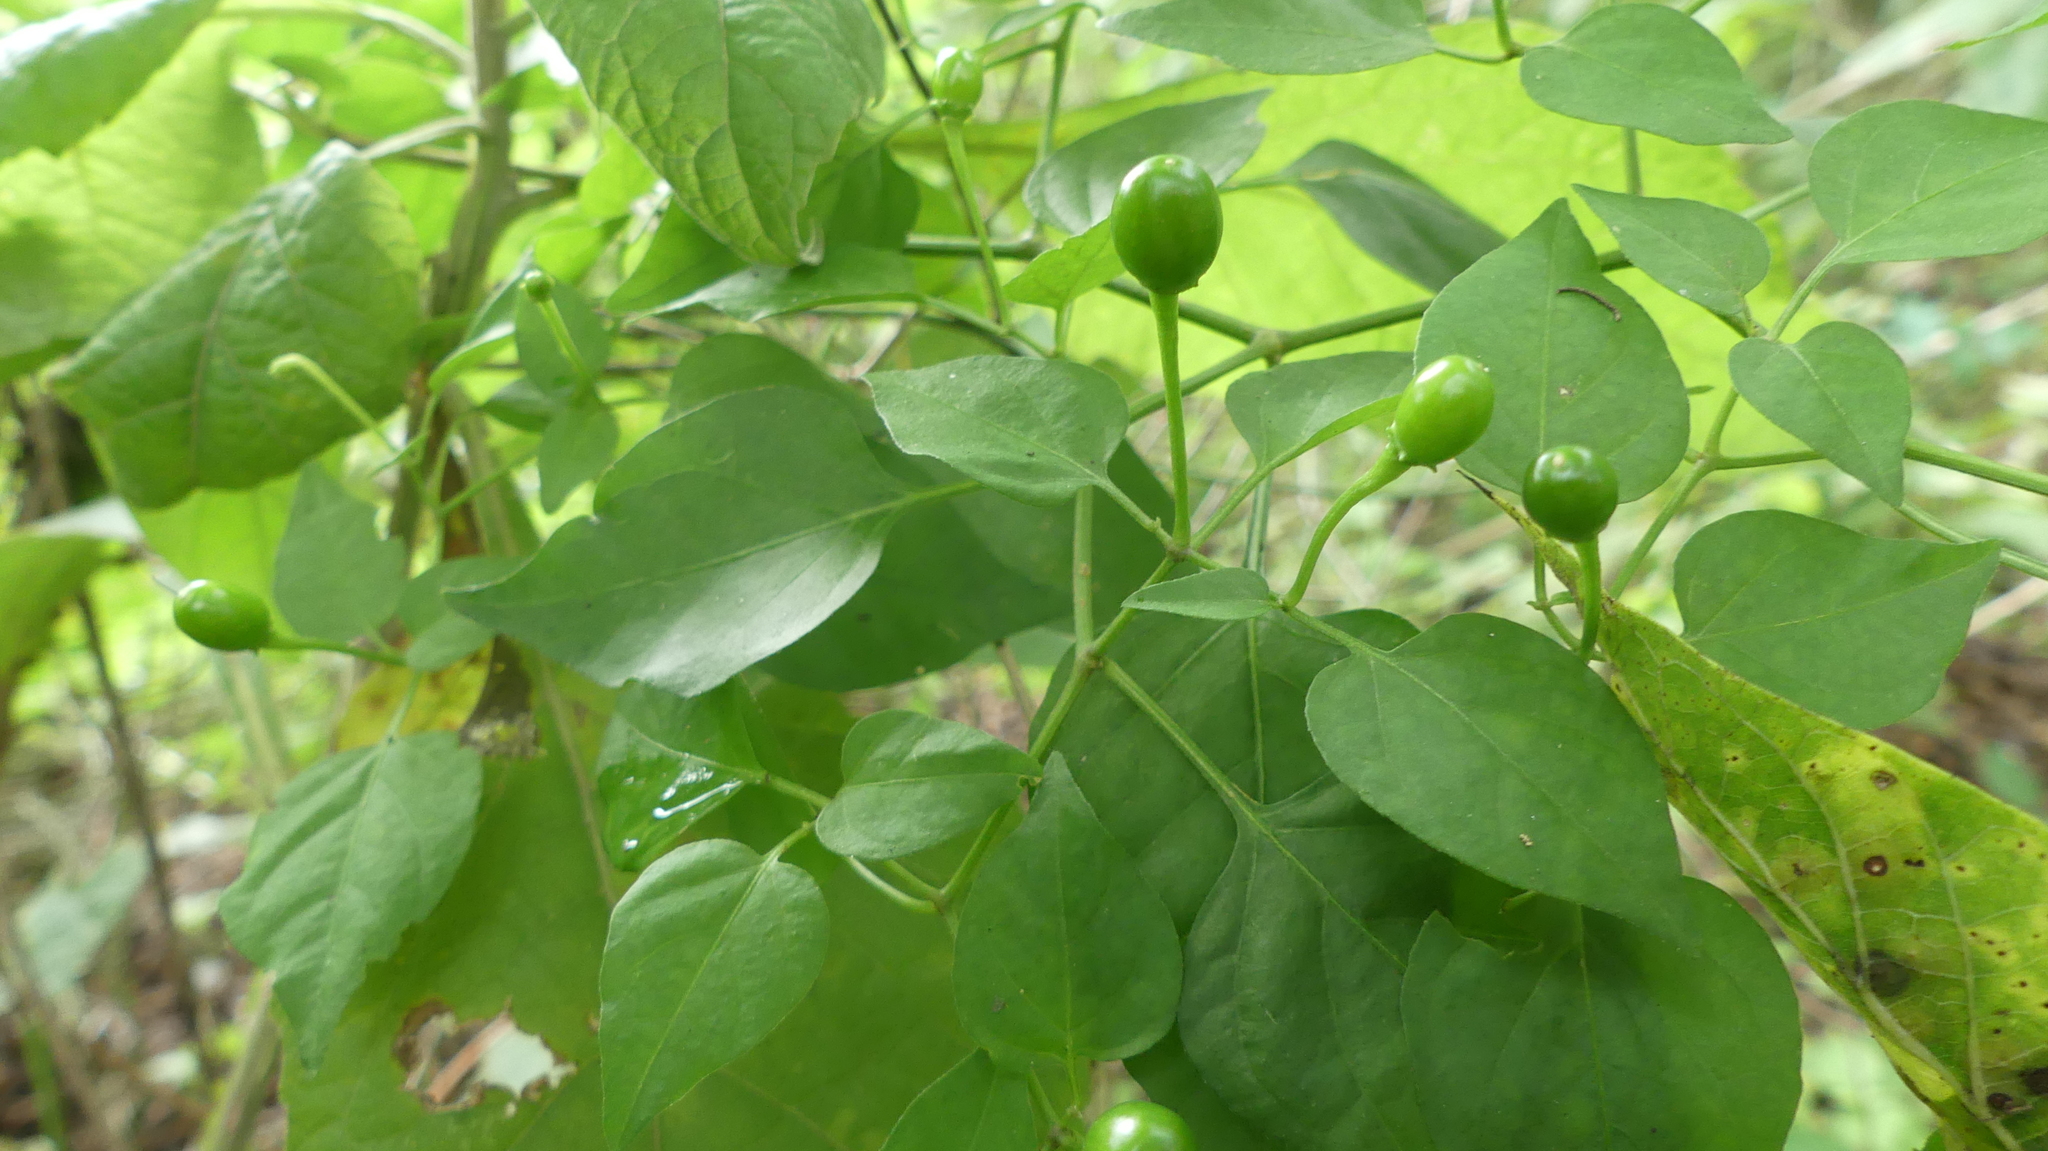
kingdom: Plantae
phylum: Tracheophyta
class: Magnoliopsida
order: Solanales
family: Solanaceae
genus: Capsicum
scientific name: Capsicum annuum
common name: Sweet pepper
